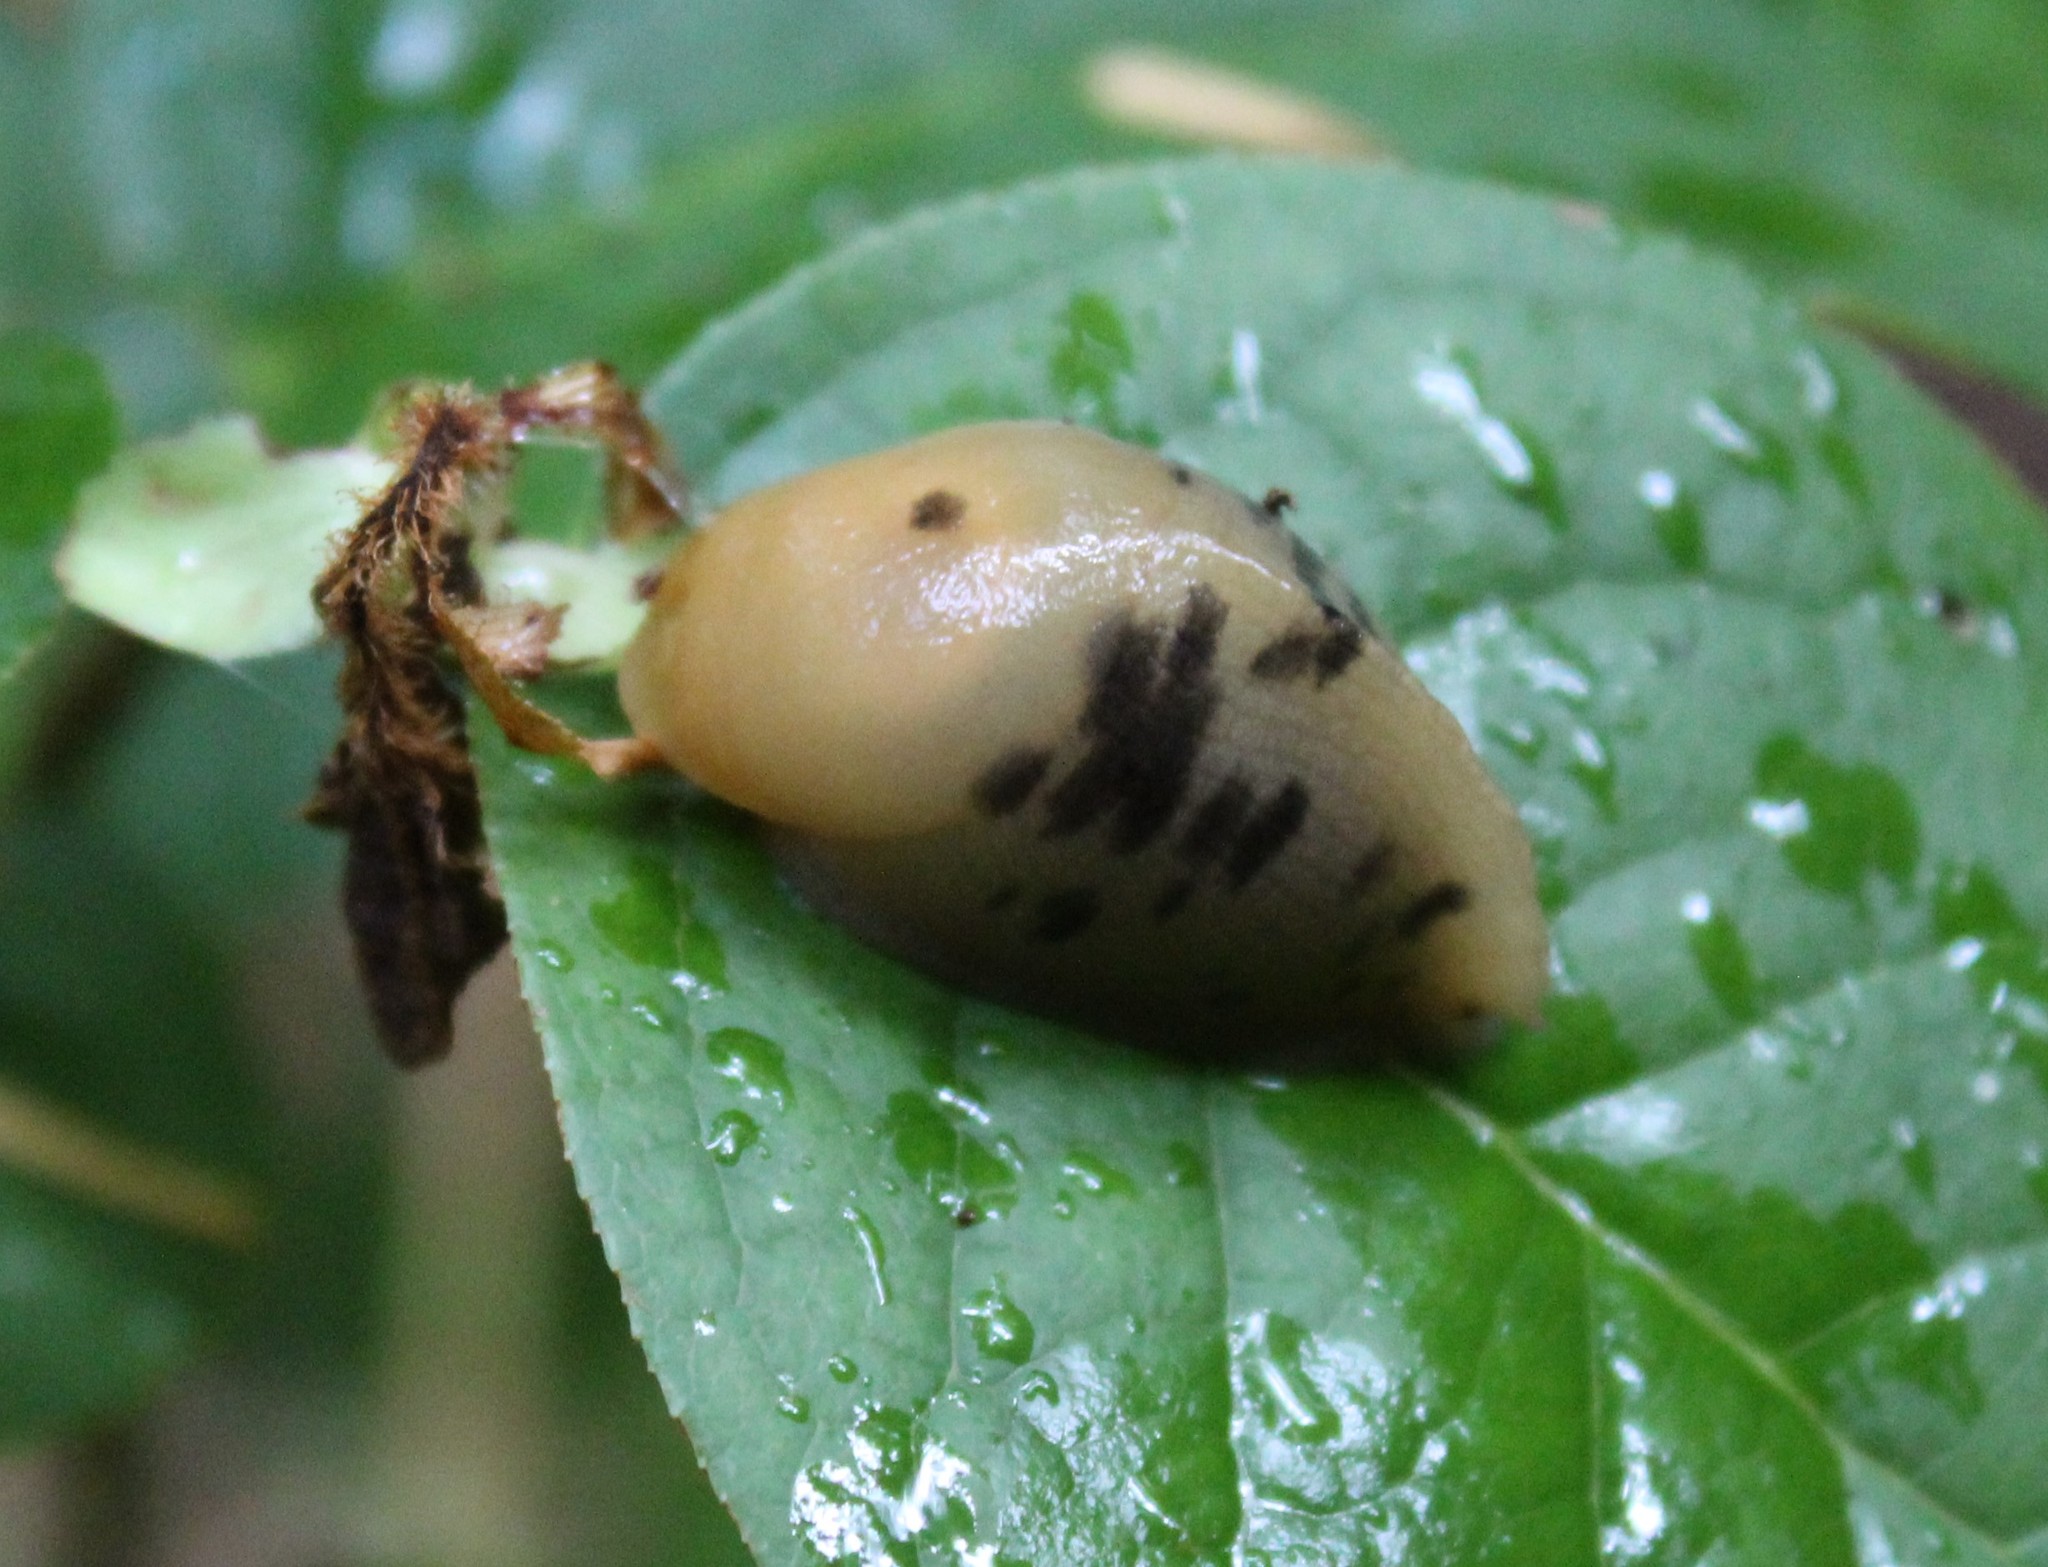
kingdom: Animalia
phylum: Mollusca
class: Gastropoda
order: Stylommatophora
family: Ariolimacidae
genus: Ariolimax
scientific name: Ariolimax columbianus
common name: Pacific banana slug
